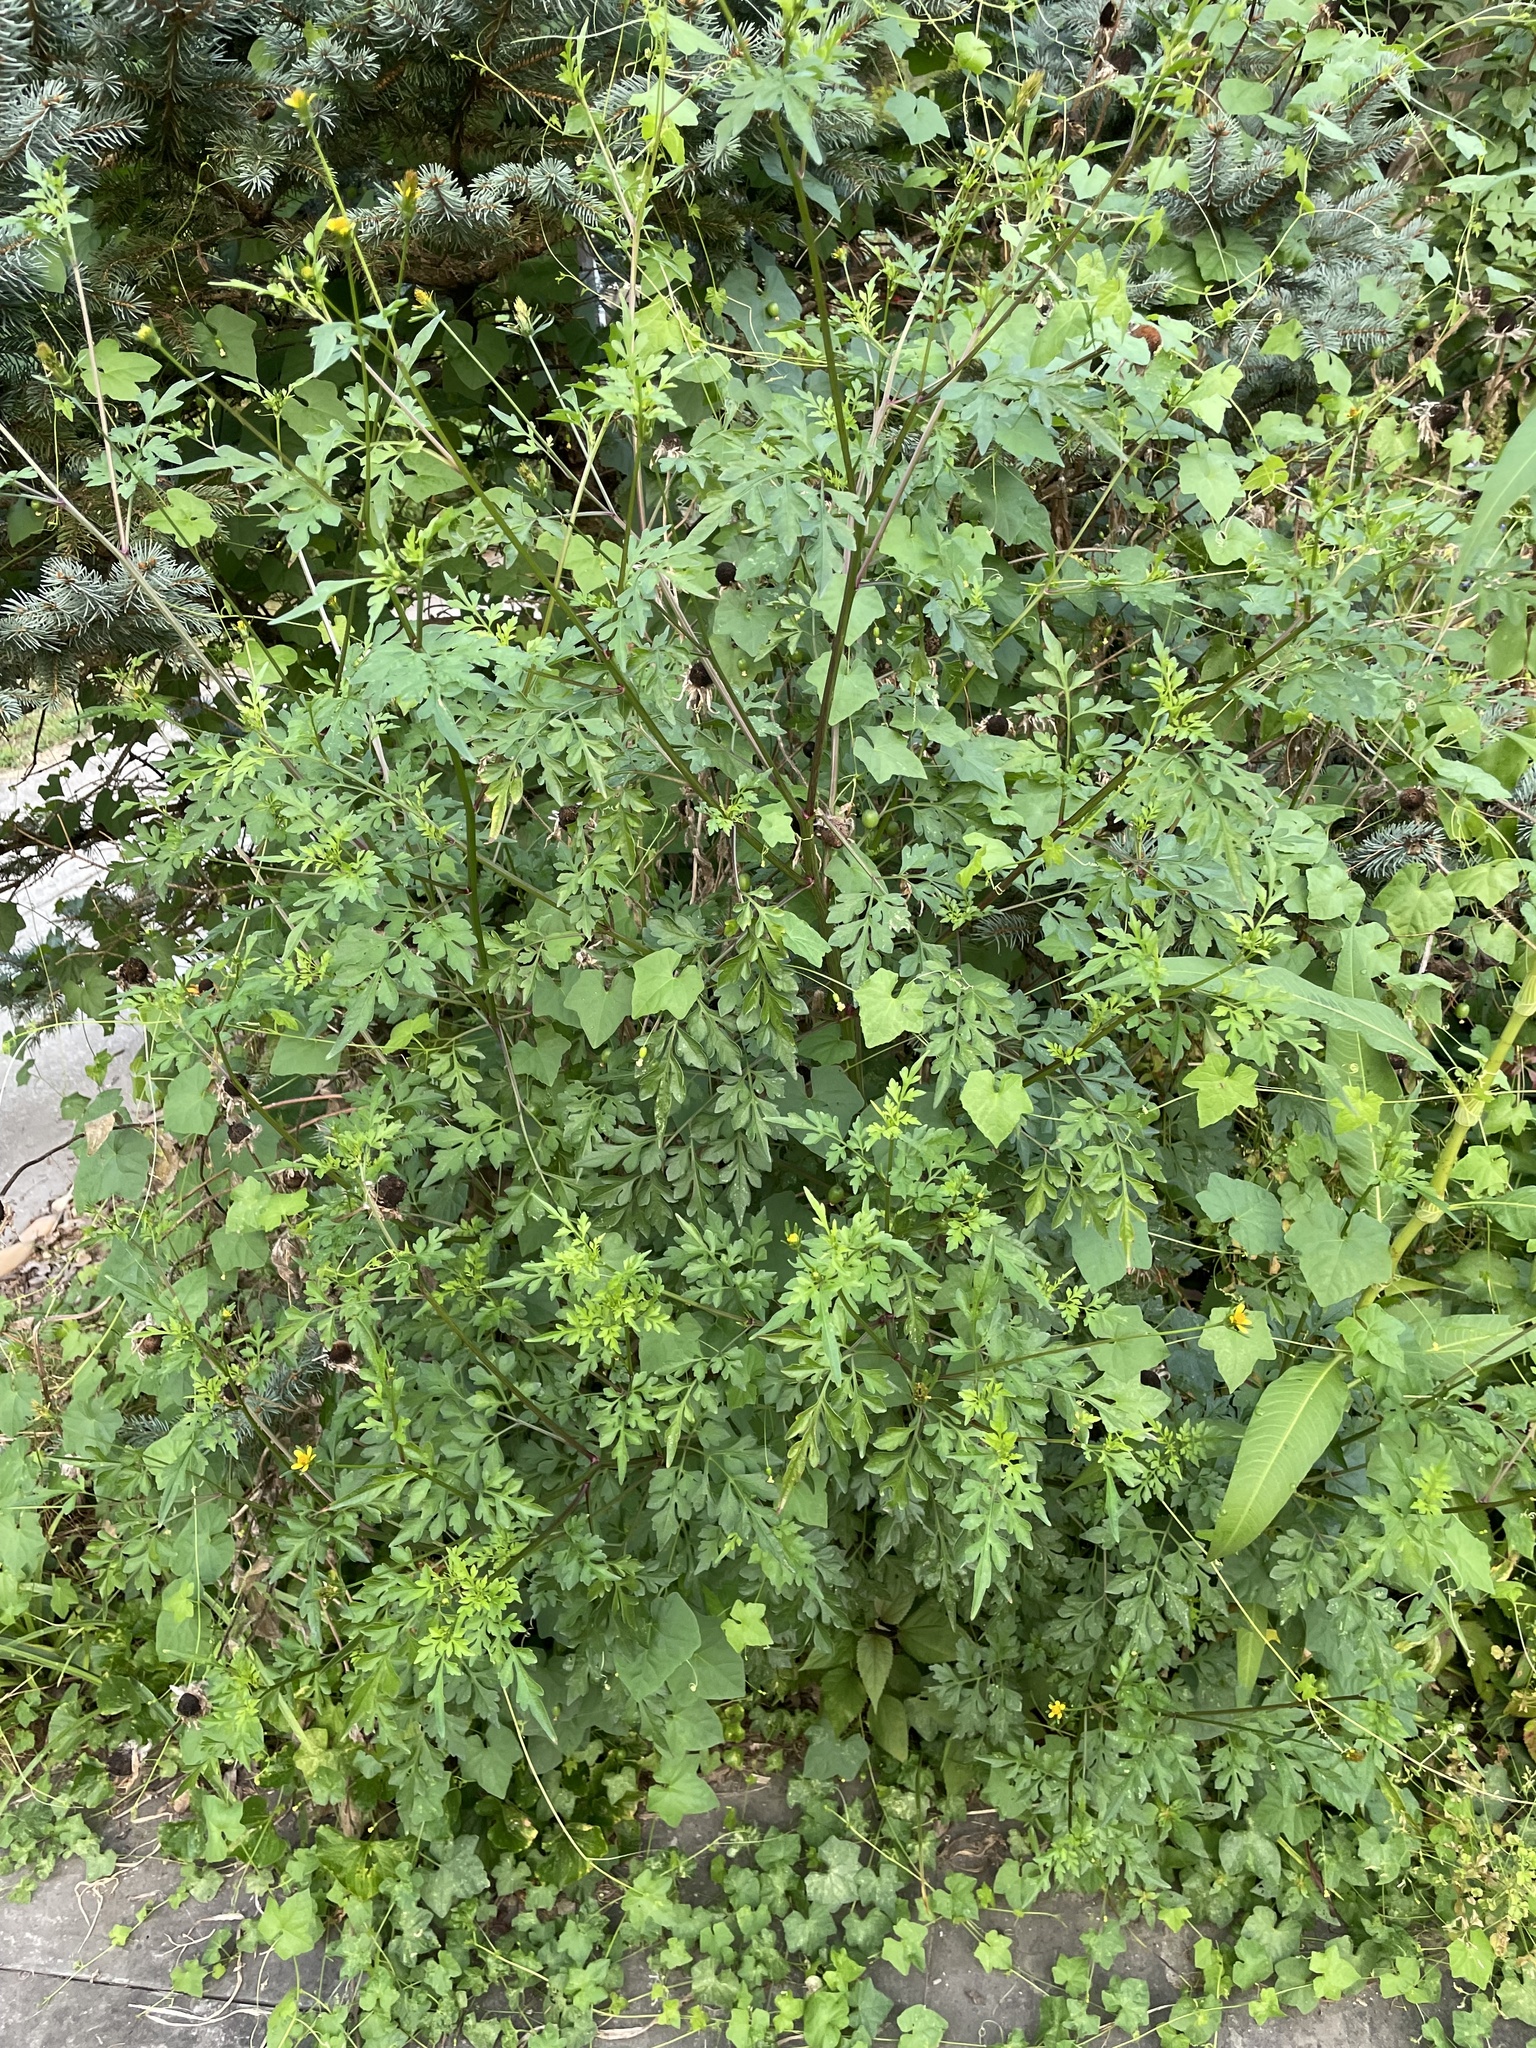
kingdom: Plantae
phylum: Tracheophyta
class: Magnoliopsida
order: Asterales
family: Asteraceae
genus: Bidens
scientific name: Bidens bipinnata
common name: Spanish-needles
